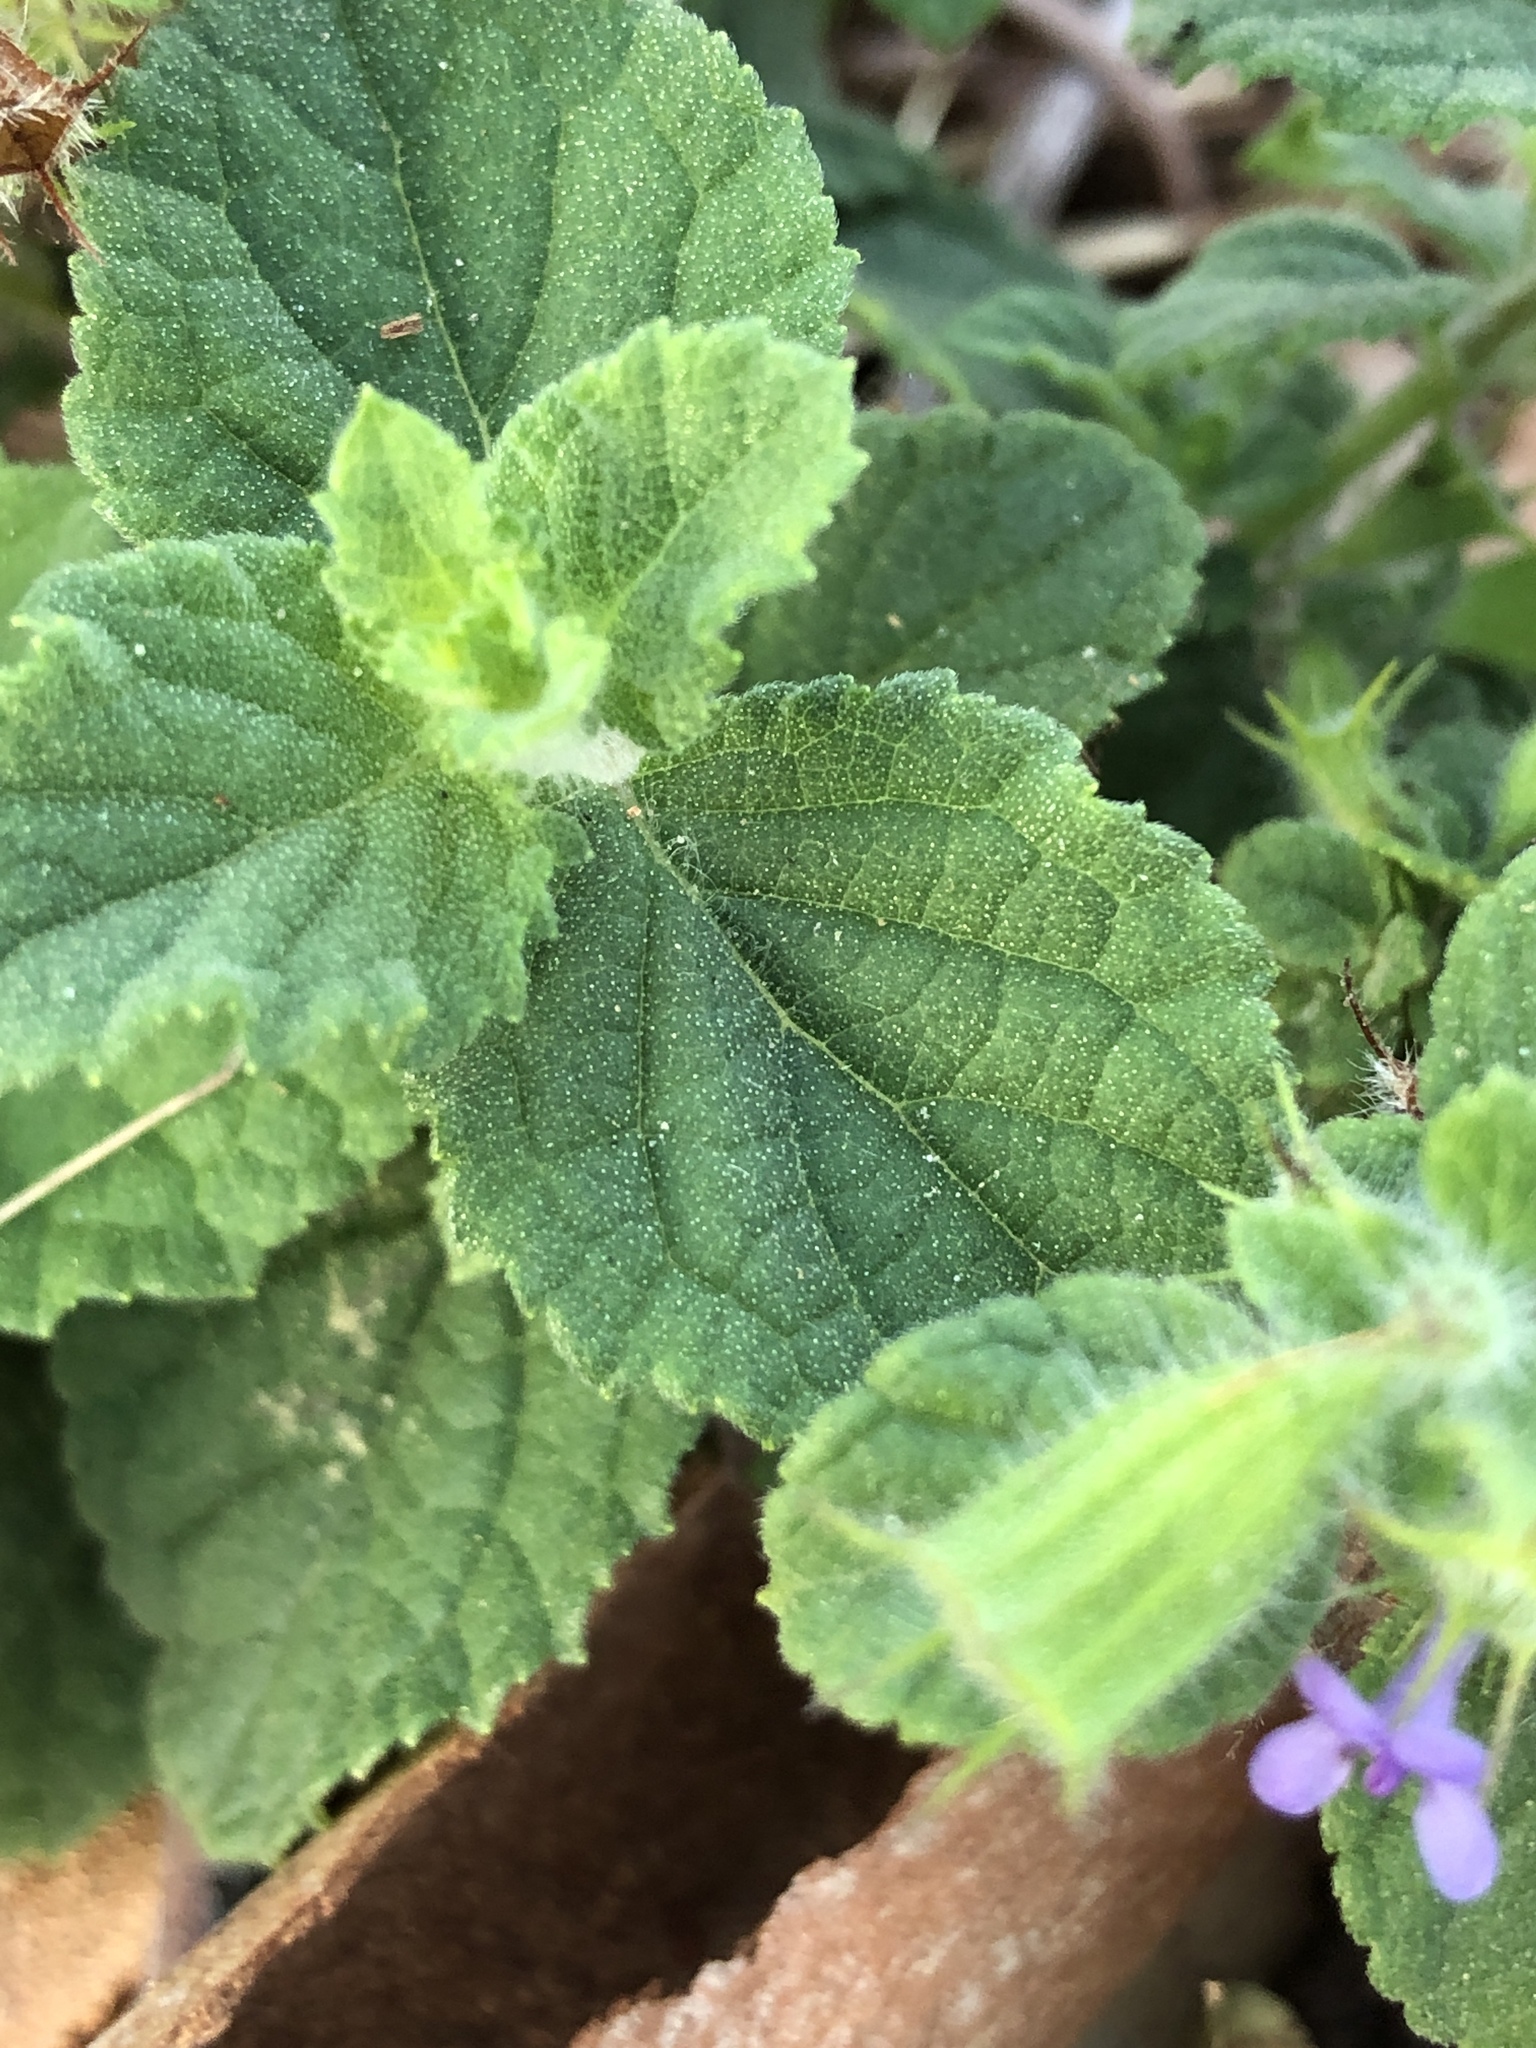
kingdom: Plantae
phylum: Tracheophyta
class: Magnoliopsida
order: Lamiales
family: Lamiaceae
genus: Mesosphaerum
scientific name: Mesosphaerum suaveolens
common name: Pignut
